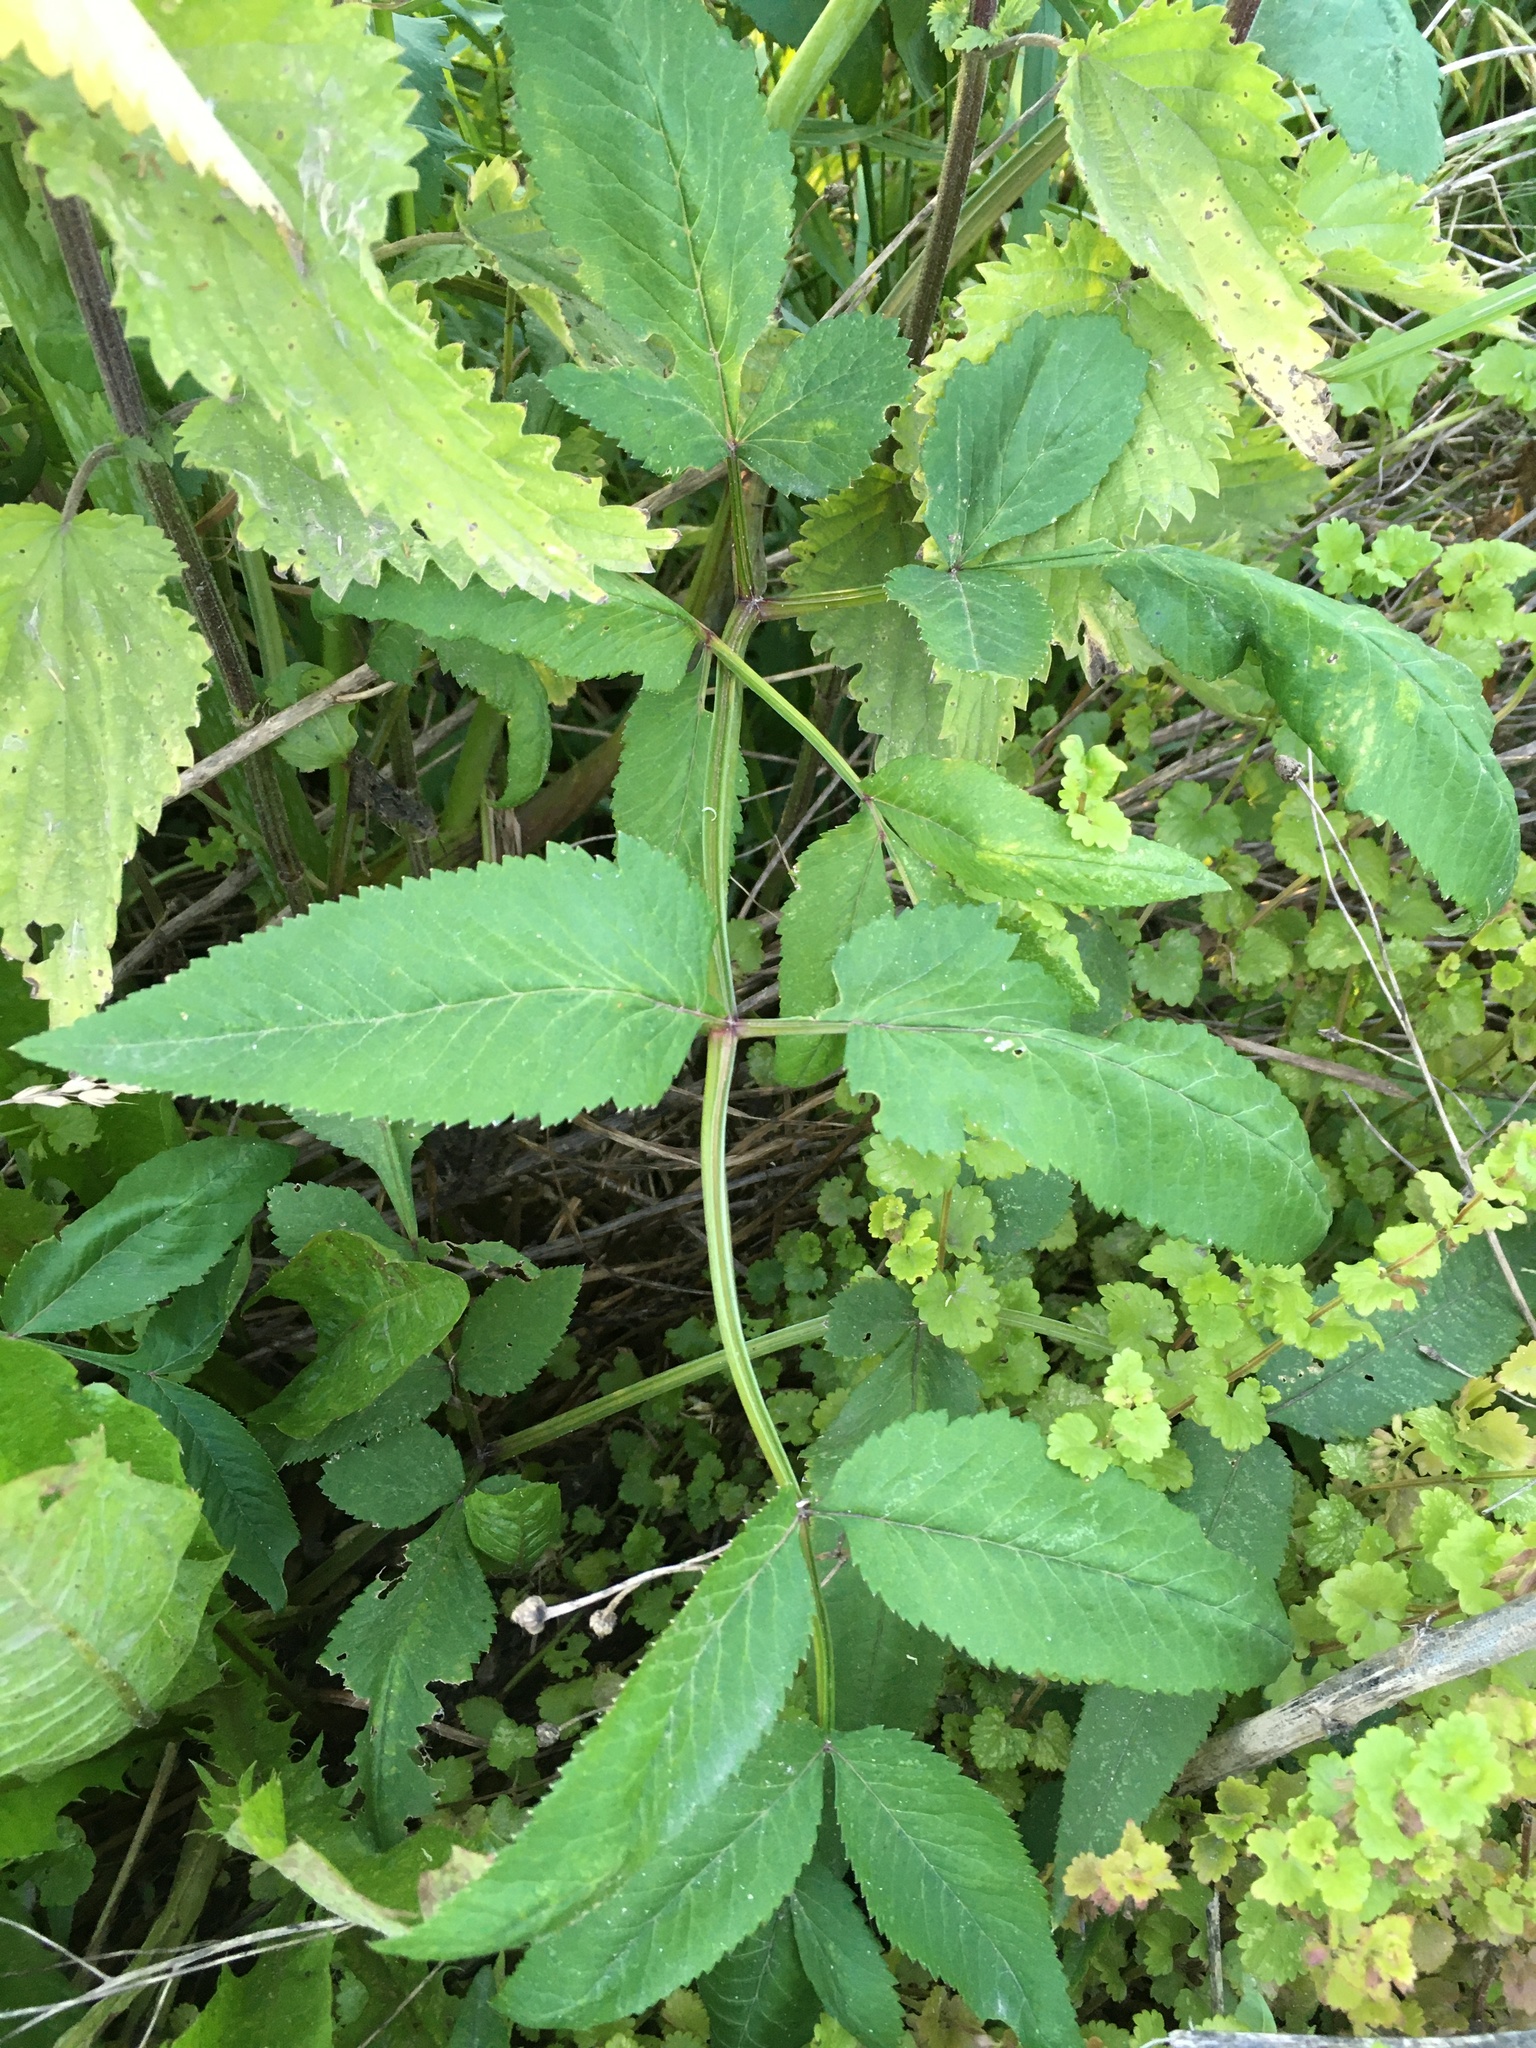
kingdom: Plantae
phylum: Tracheophyta
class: Magnoliopsida
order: Apiales
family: Apiaceae
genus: Angelica
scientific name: Angelica sylvestris
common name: Wild angelica
